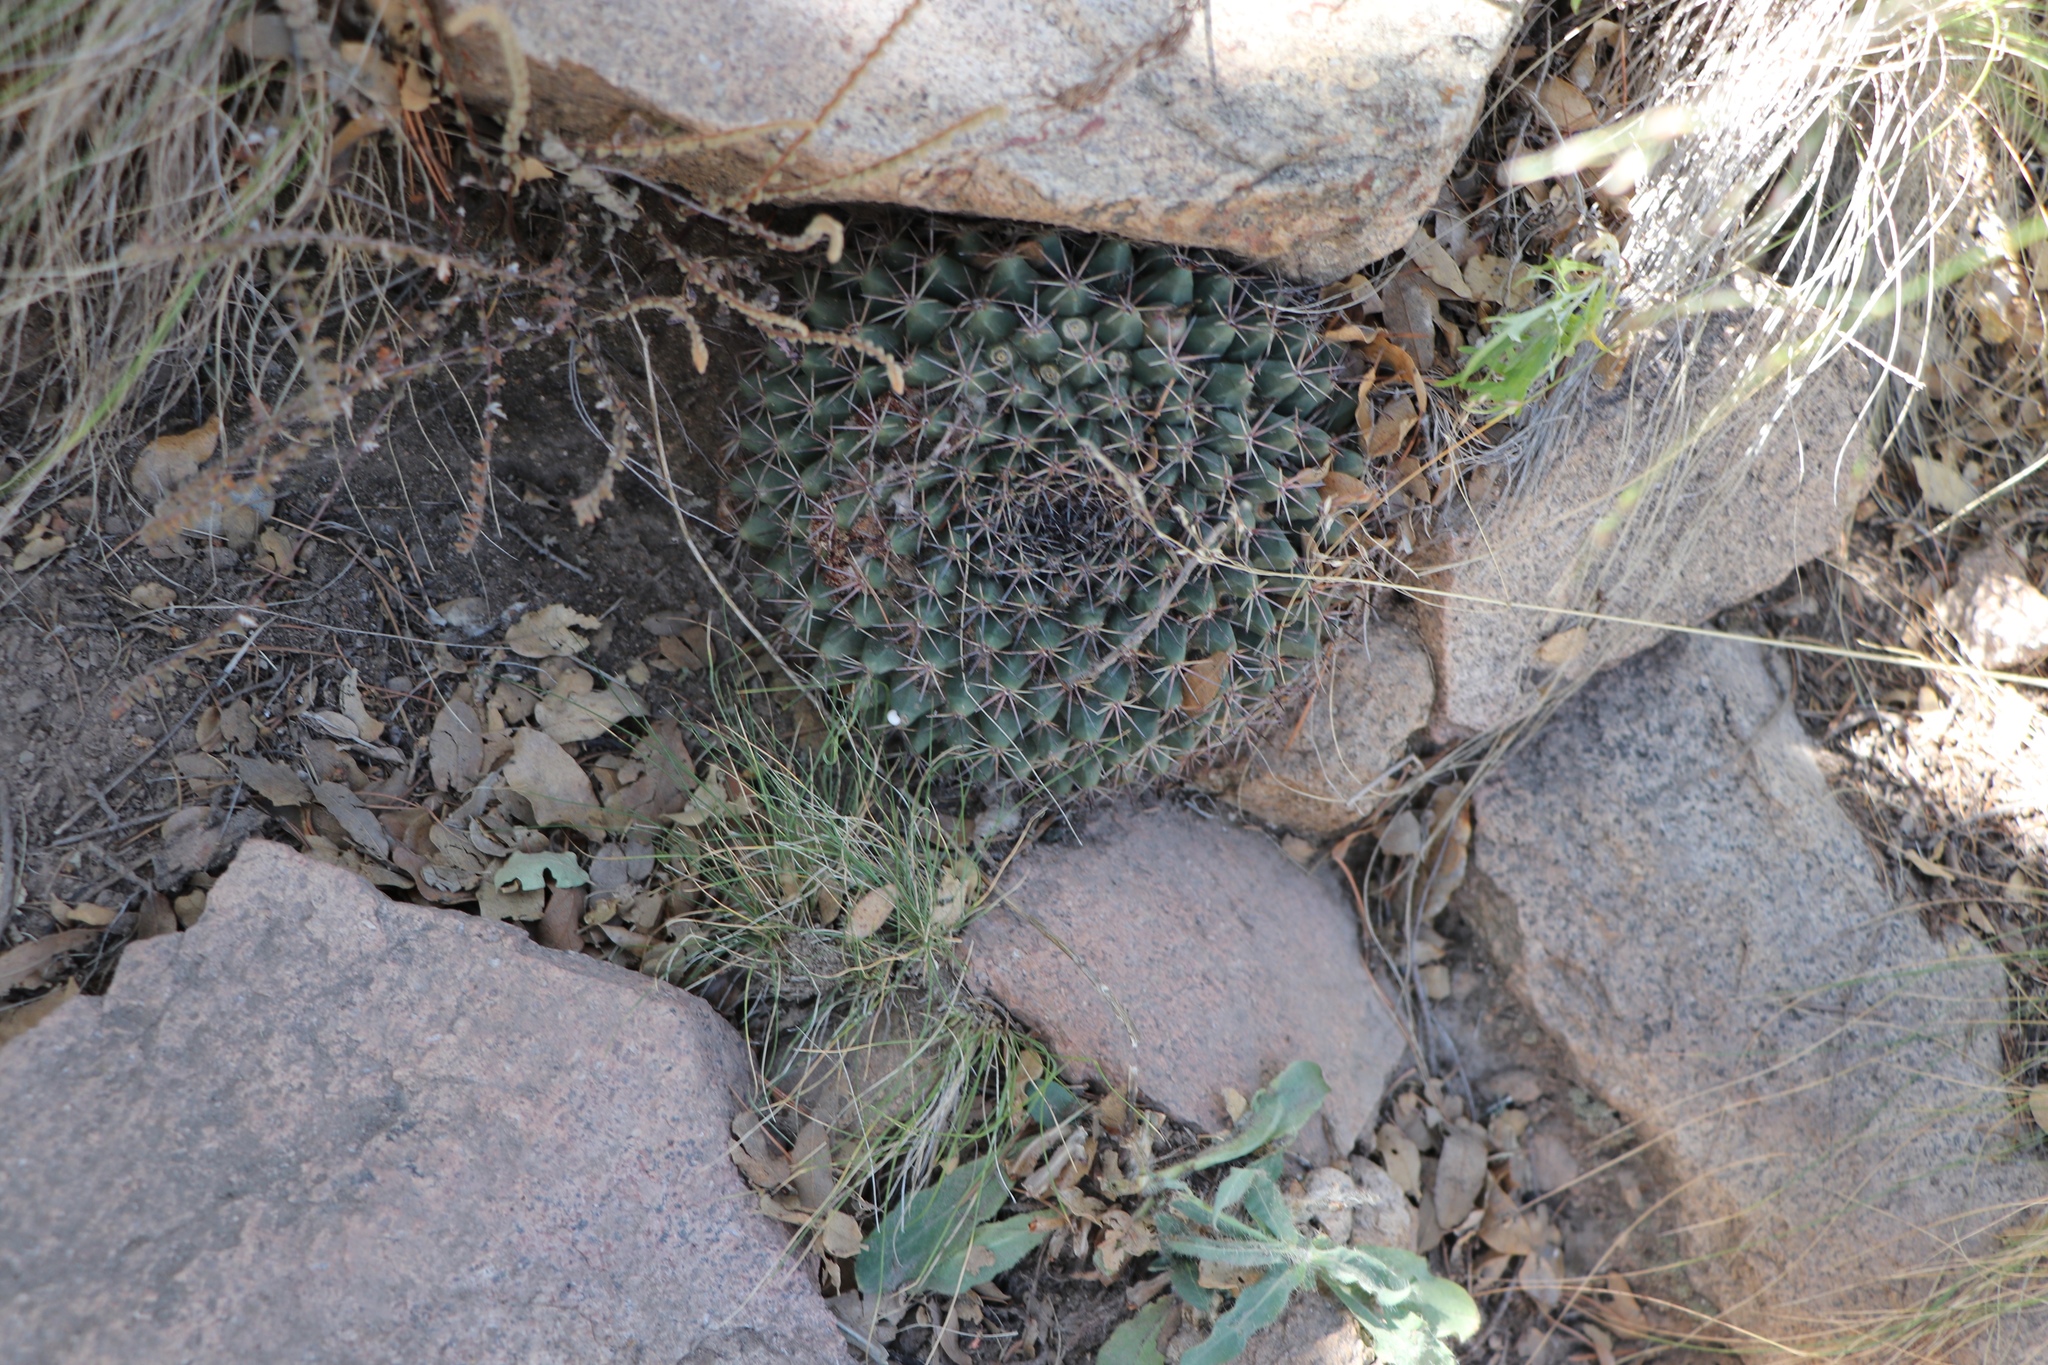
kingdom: Plantae
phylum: Tracheophyta
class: Magnoliopsida
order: Caryophyllales
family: Cactaceae
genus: Mammillaria
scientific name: Mammillaria heyderi
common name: Little nipple cactus
